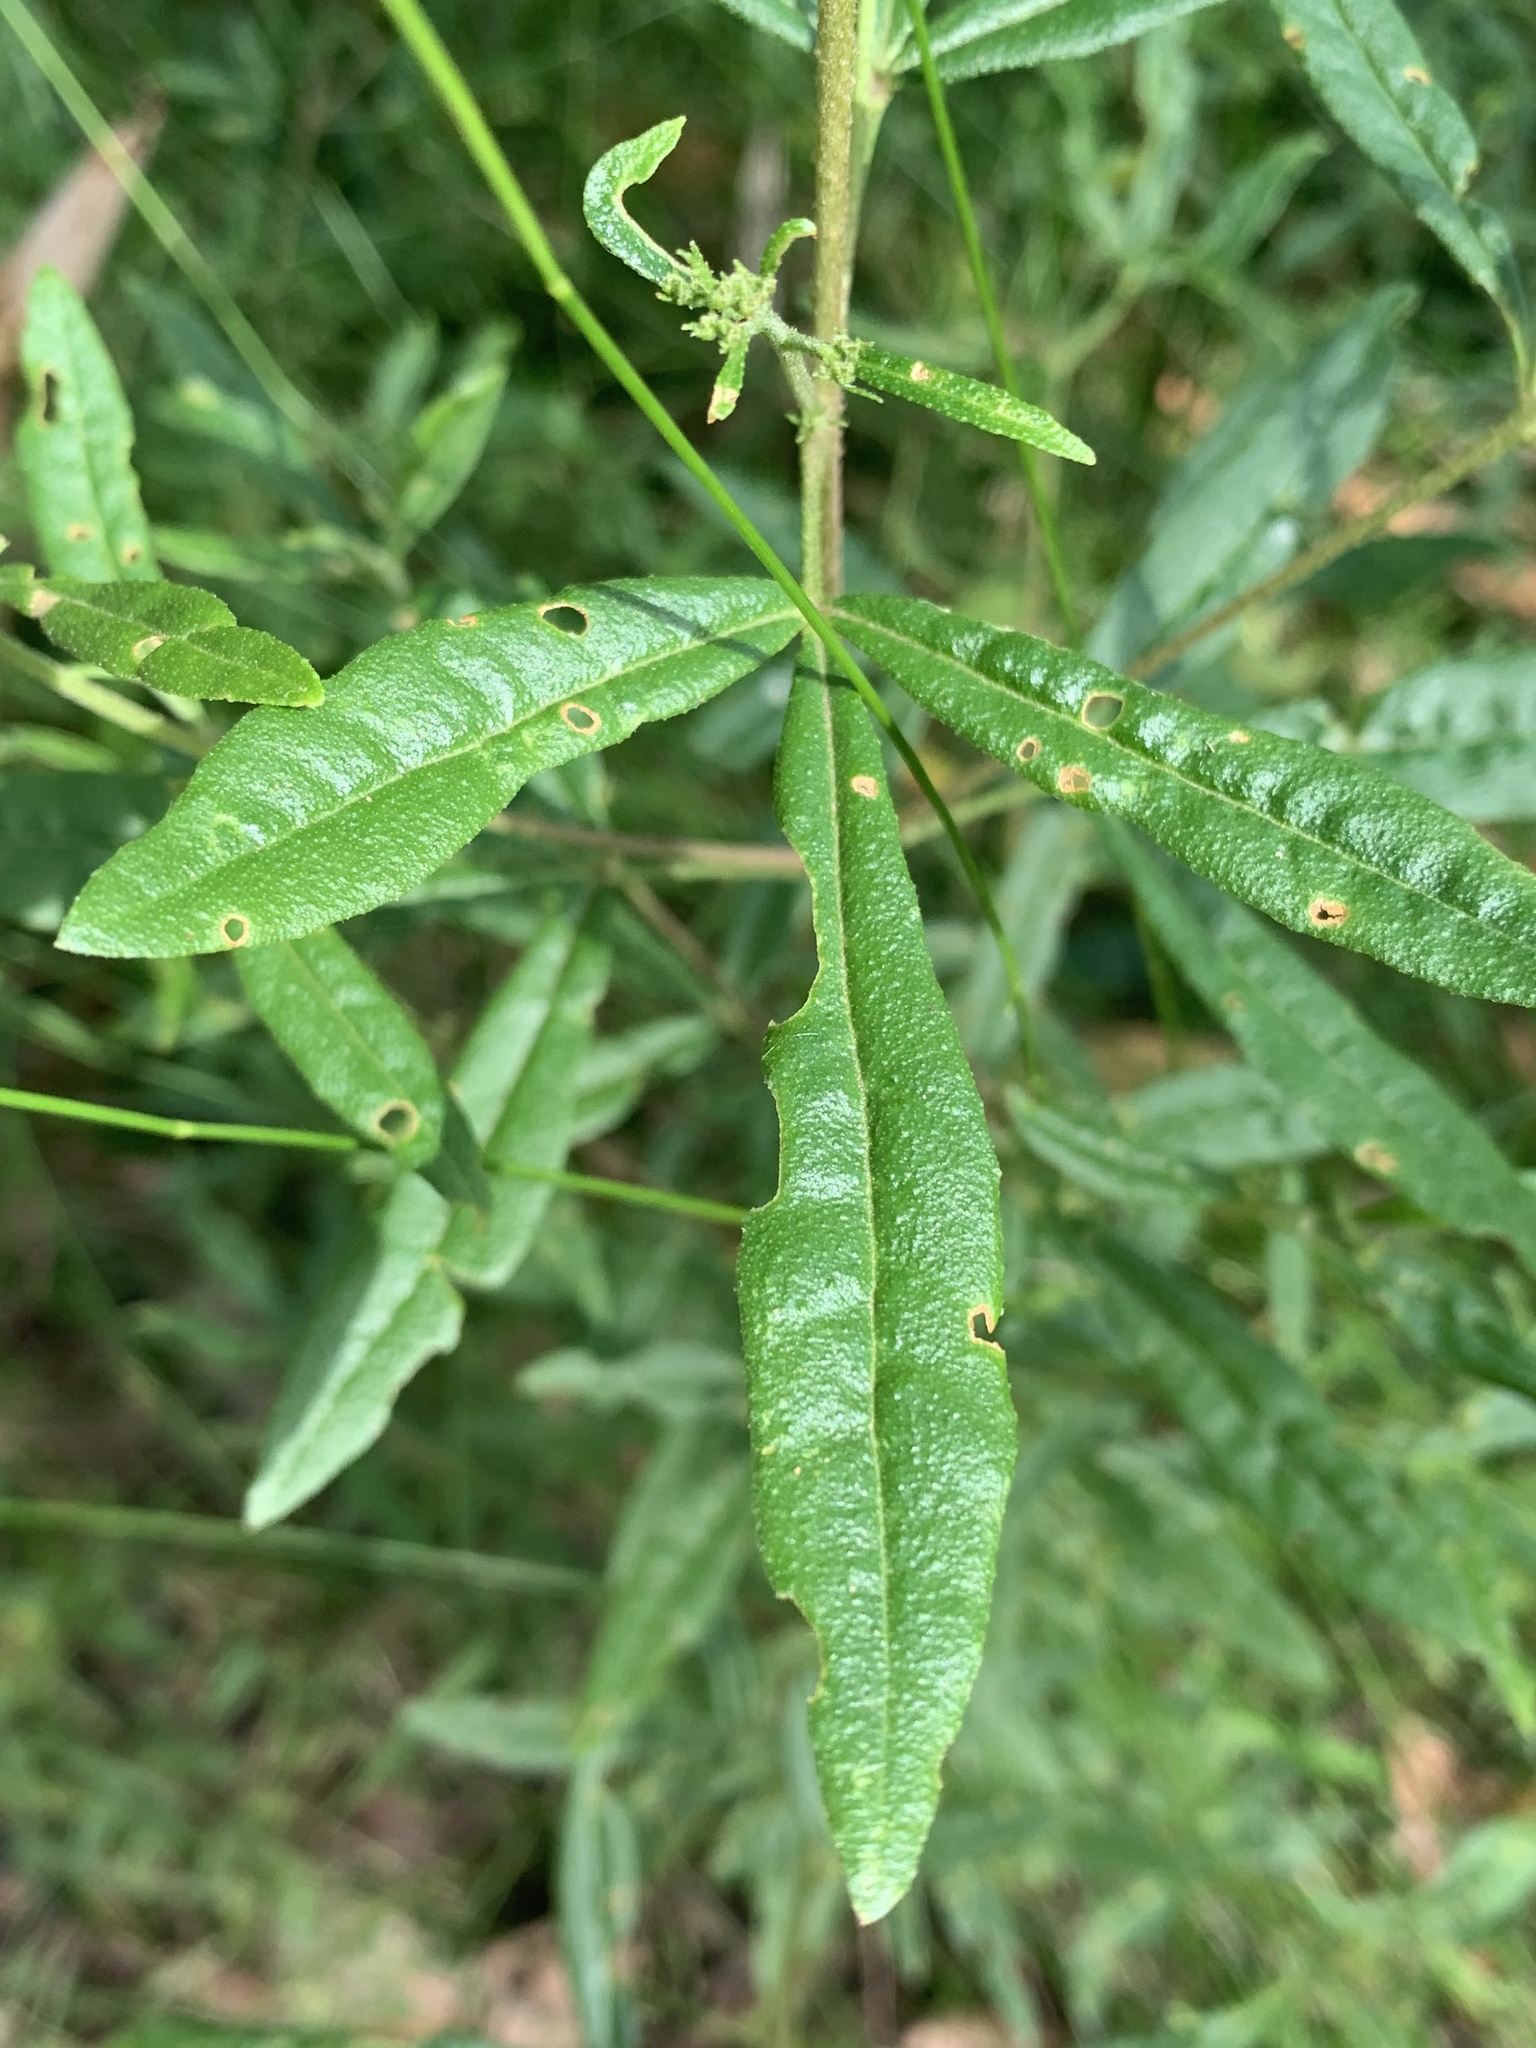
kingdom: Plantae
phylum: Tracheophyta
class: Magnoliopsida
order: Sapindales
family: Rutaceae
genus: Zieria
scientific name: Zieria smithii
